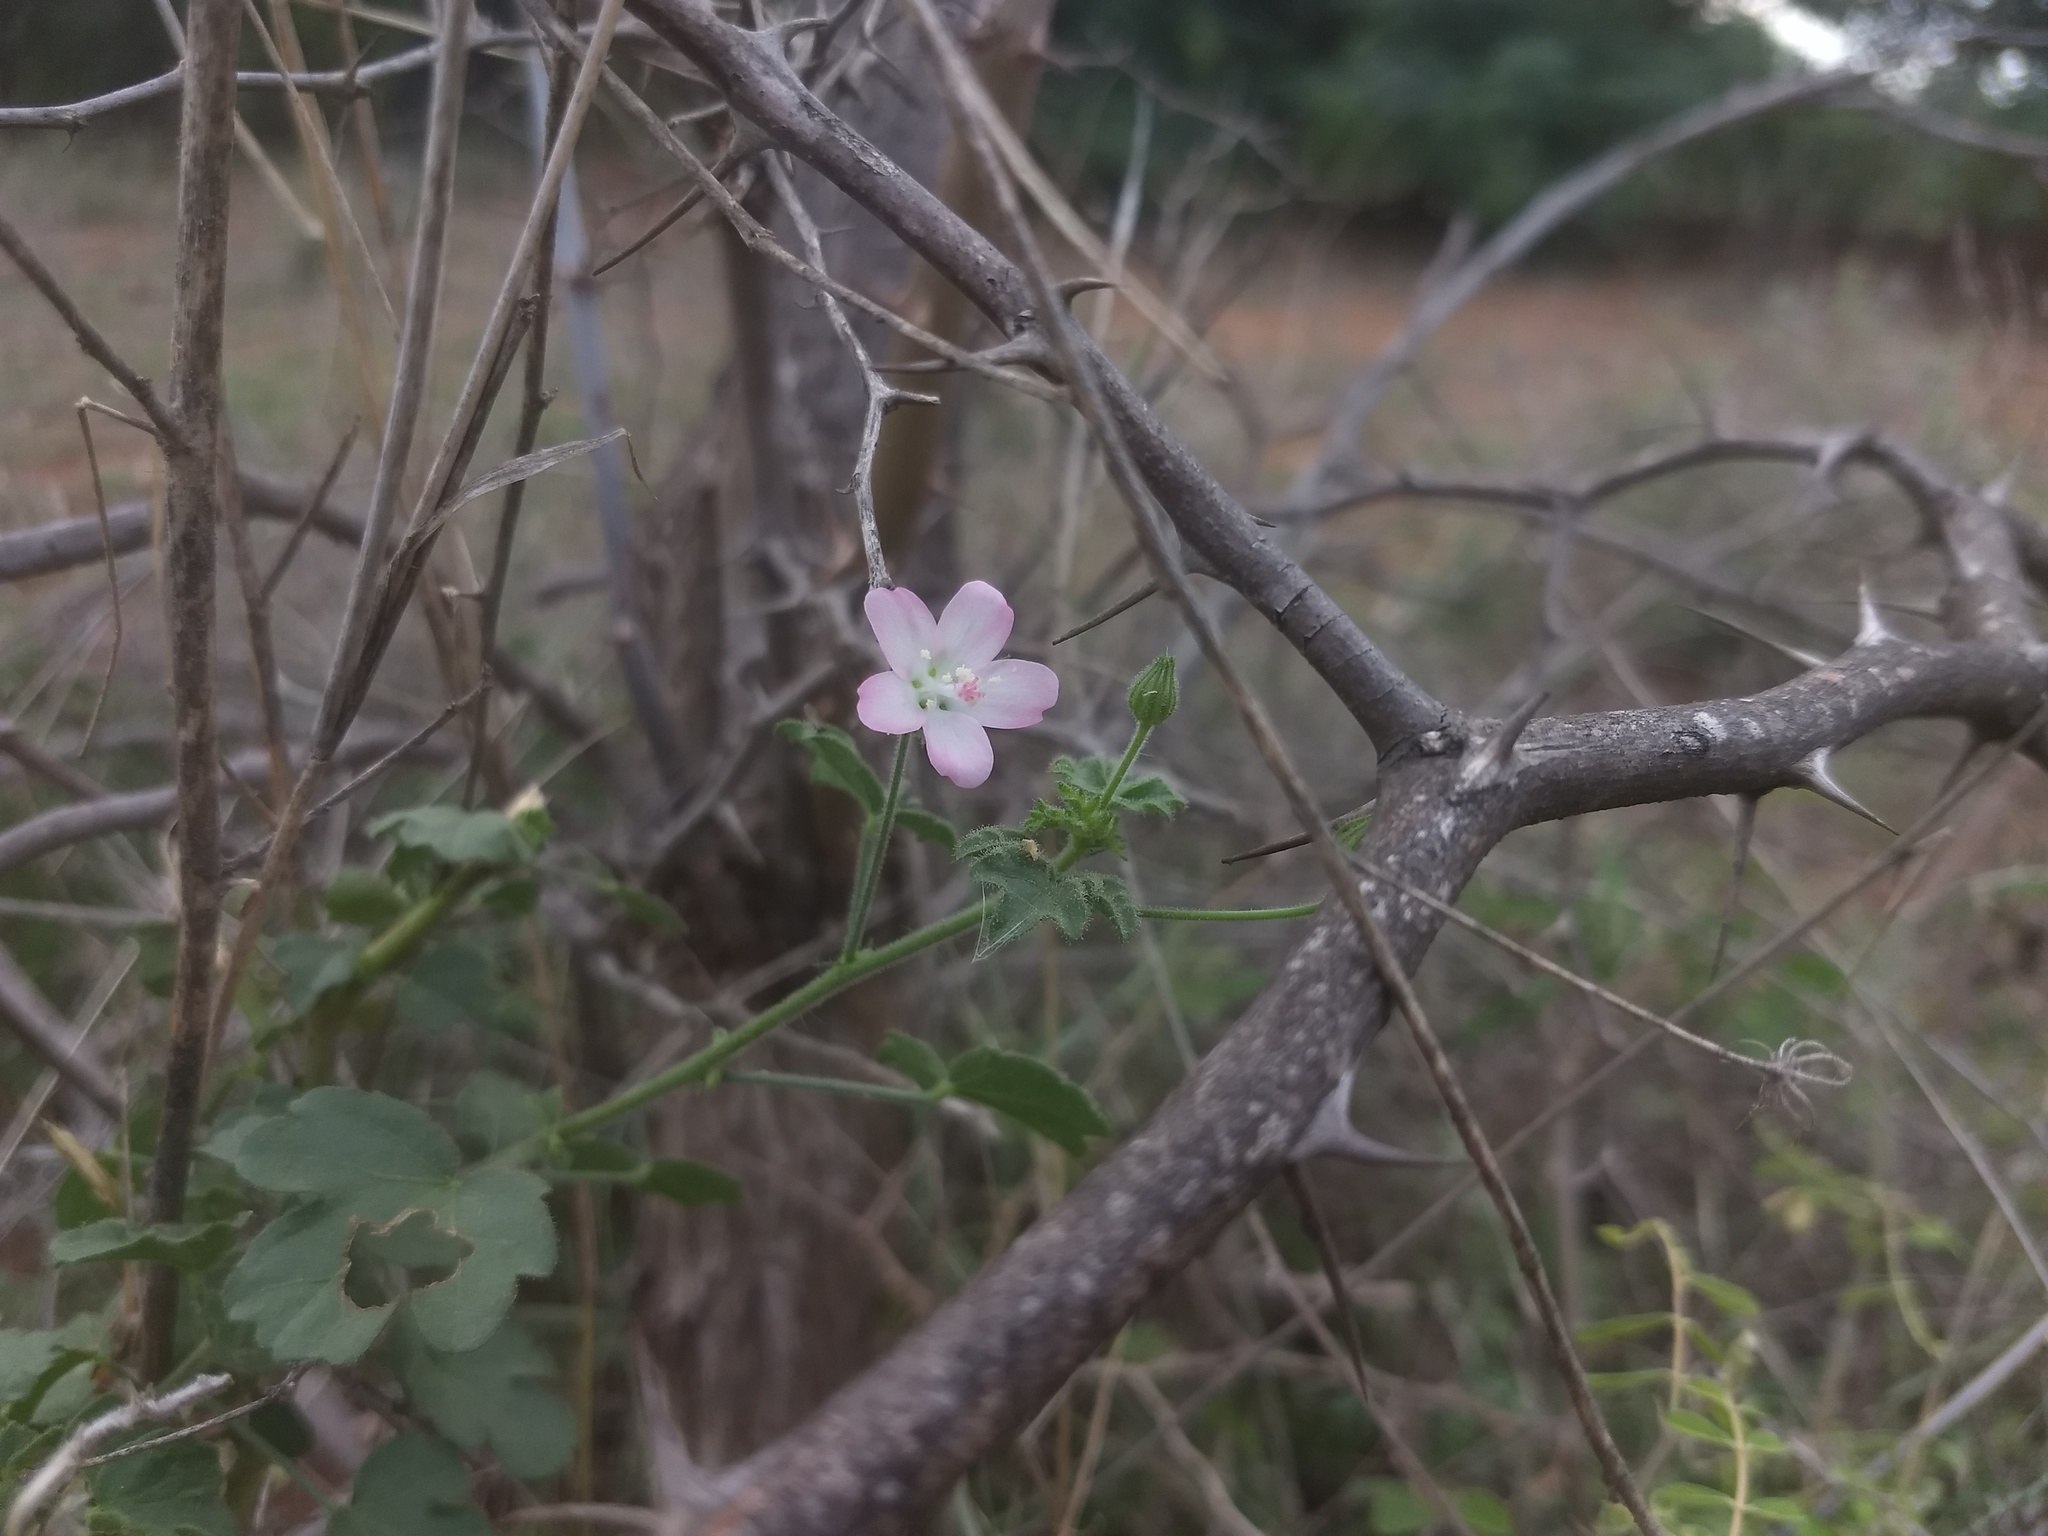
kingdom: Plantae
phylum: Tracheophyta
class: Magnoliopsida
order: Malvales
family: Malvaceae
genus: Hibiscus
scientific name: Hibiscus lobatus
